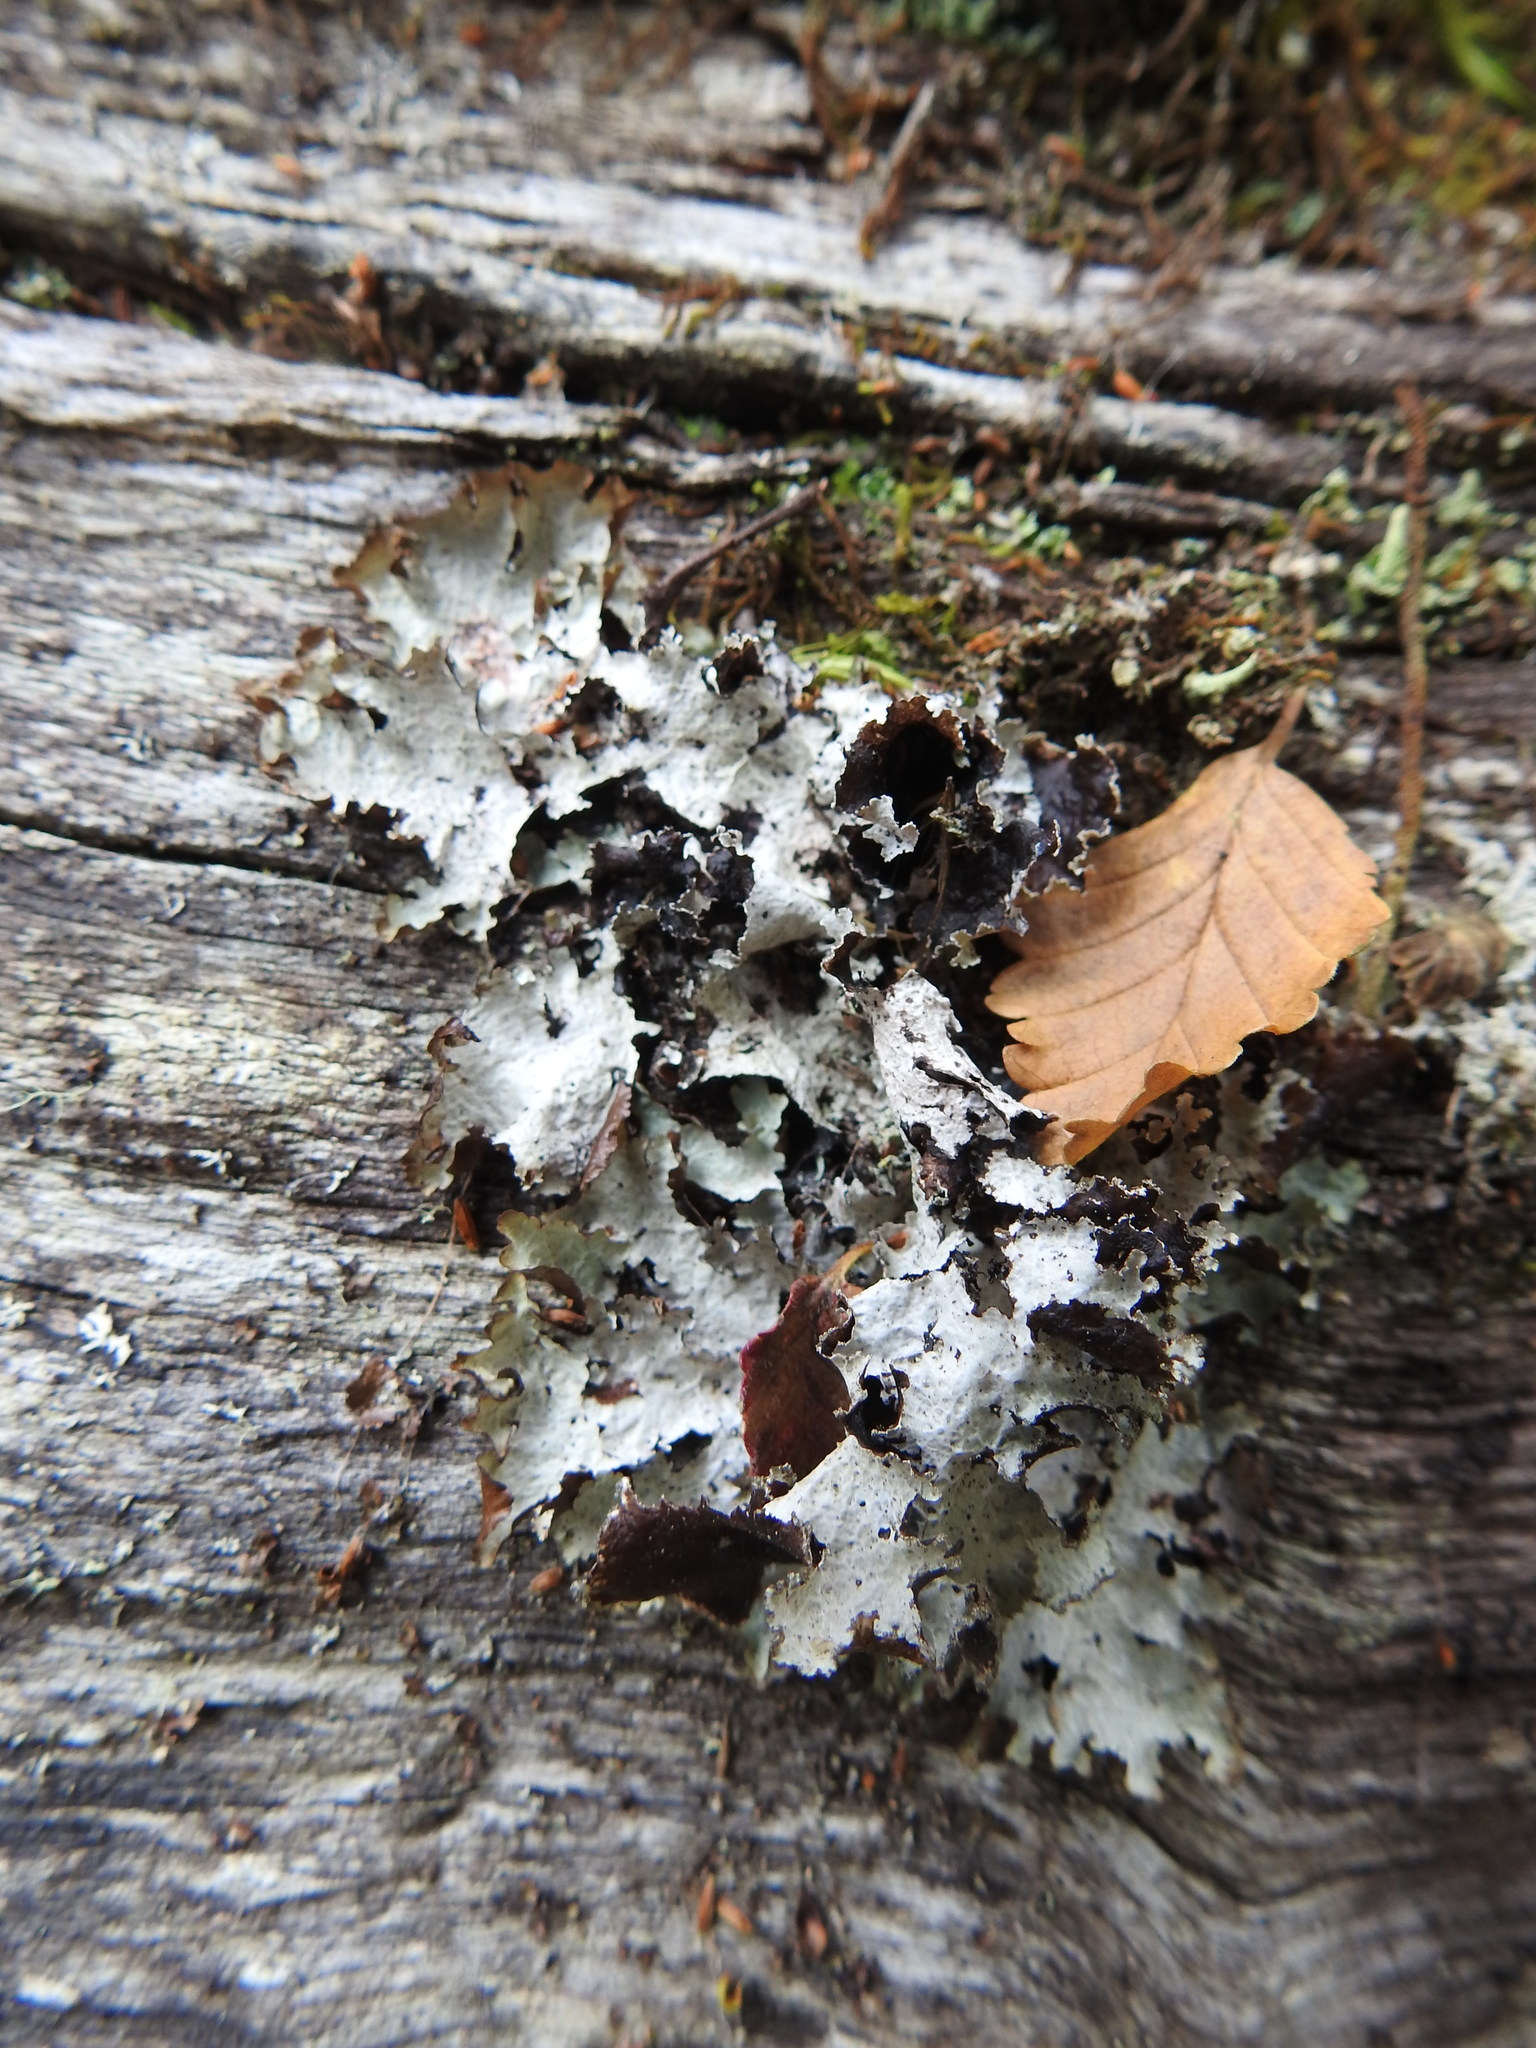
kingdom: Fungi
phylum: Ascomycota
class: Lecanoromycetes
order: Lecanorales
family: Parmeliaceae
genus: Platismatia
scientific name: Platismatia glauca
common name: Varied rag lichen
